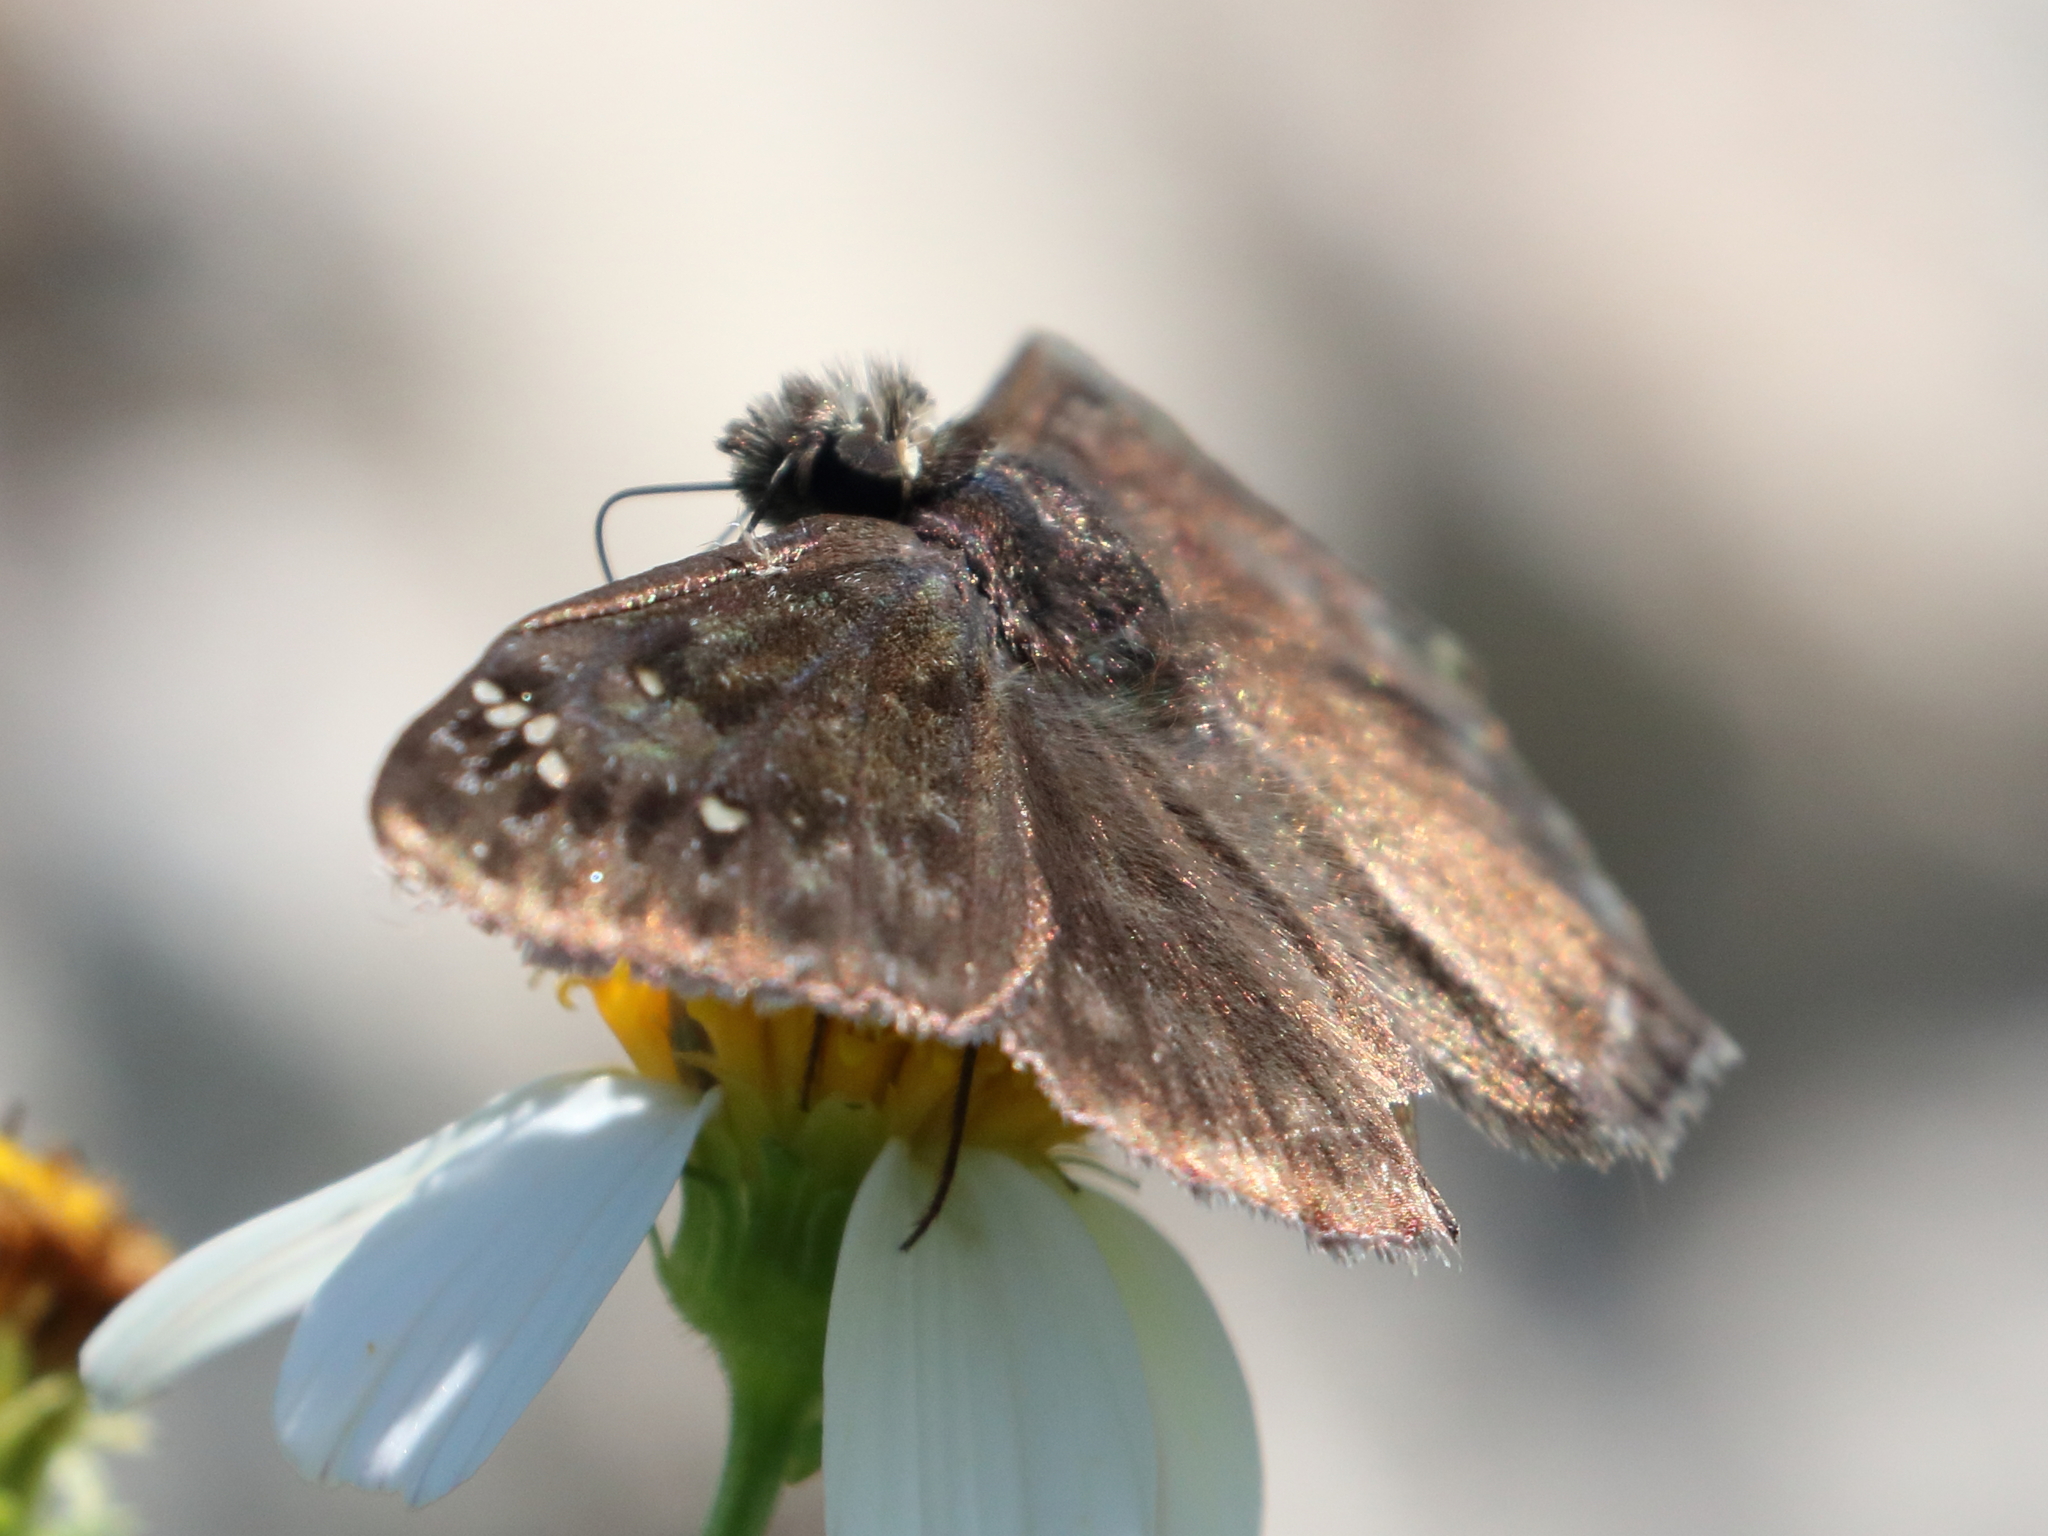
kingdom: Animalia
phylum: Arthropoda
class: Insecta
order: Lepidoptera
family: Hesperiidae
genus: Erynnis
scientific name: Erynnis horatius
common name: Horace's duskywing
